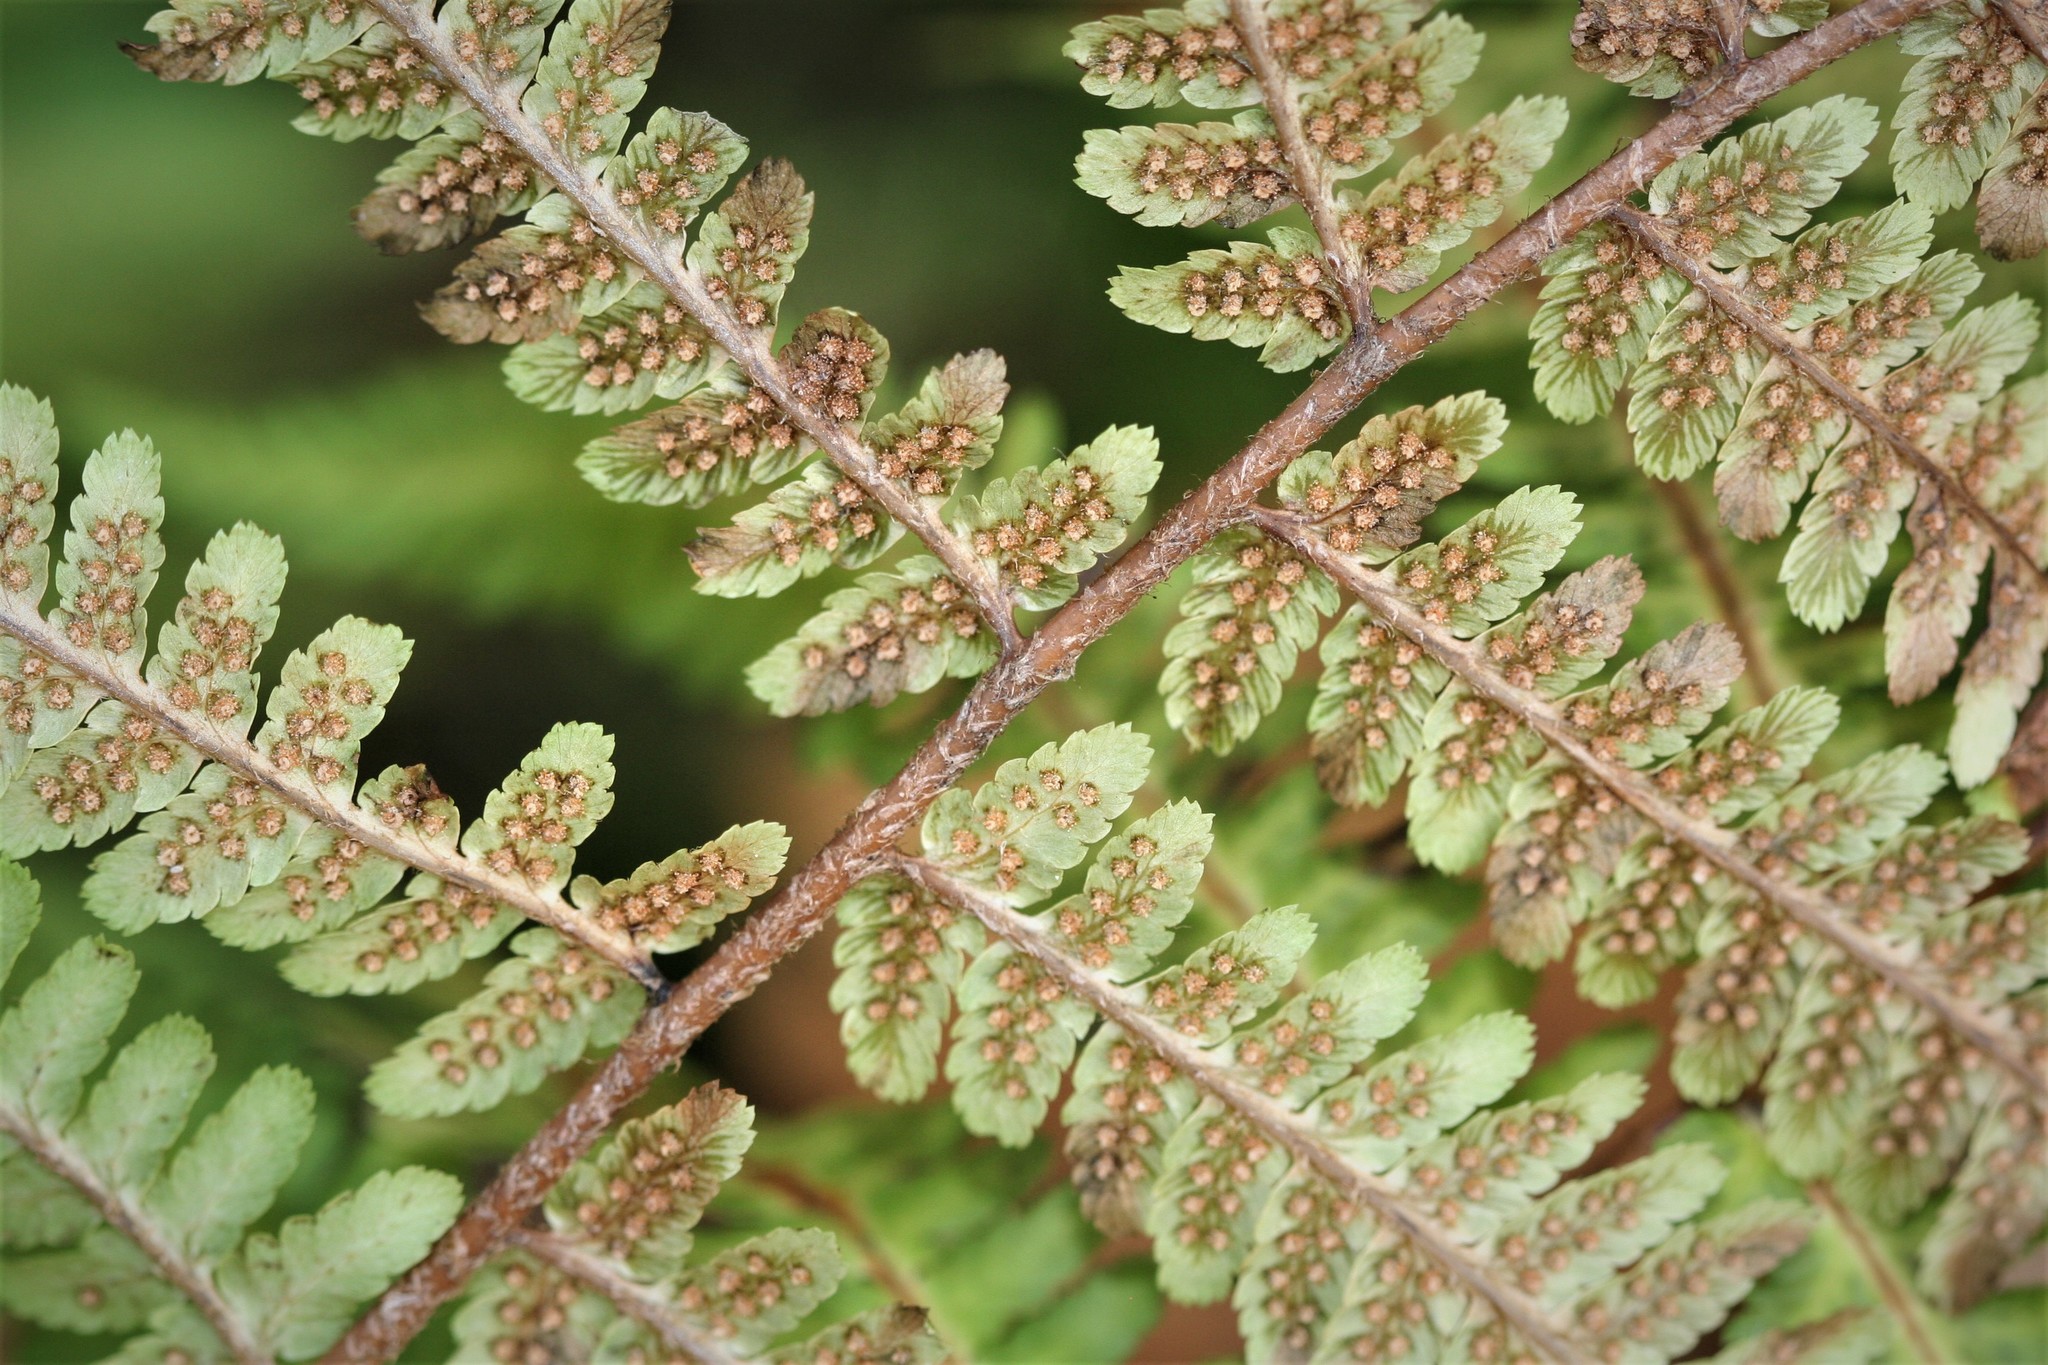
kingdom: Plantae
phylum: Tracheophyta
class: Polypodiopsida
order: Polypodiales
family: Dryopteridaceae
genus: Dryopteris
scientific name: Dryopteris filix-mas
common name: Male fern
